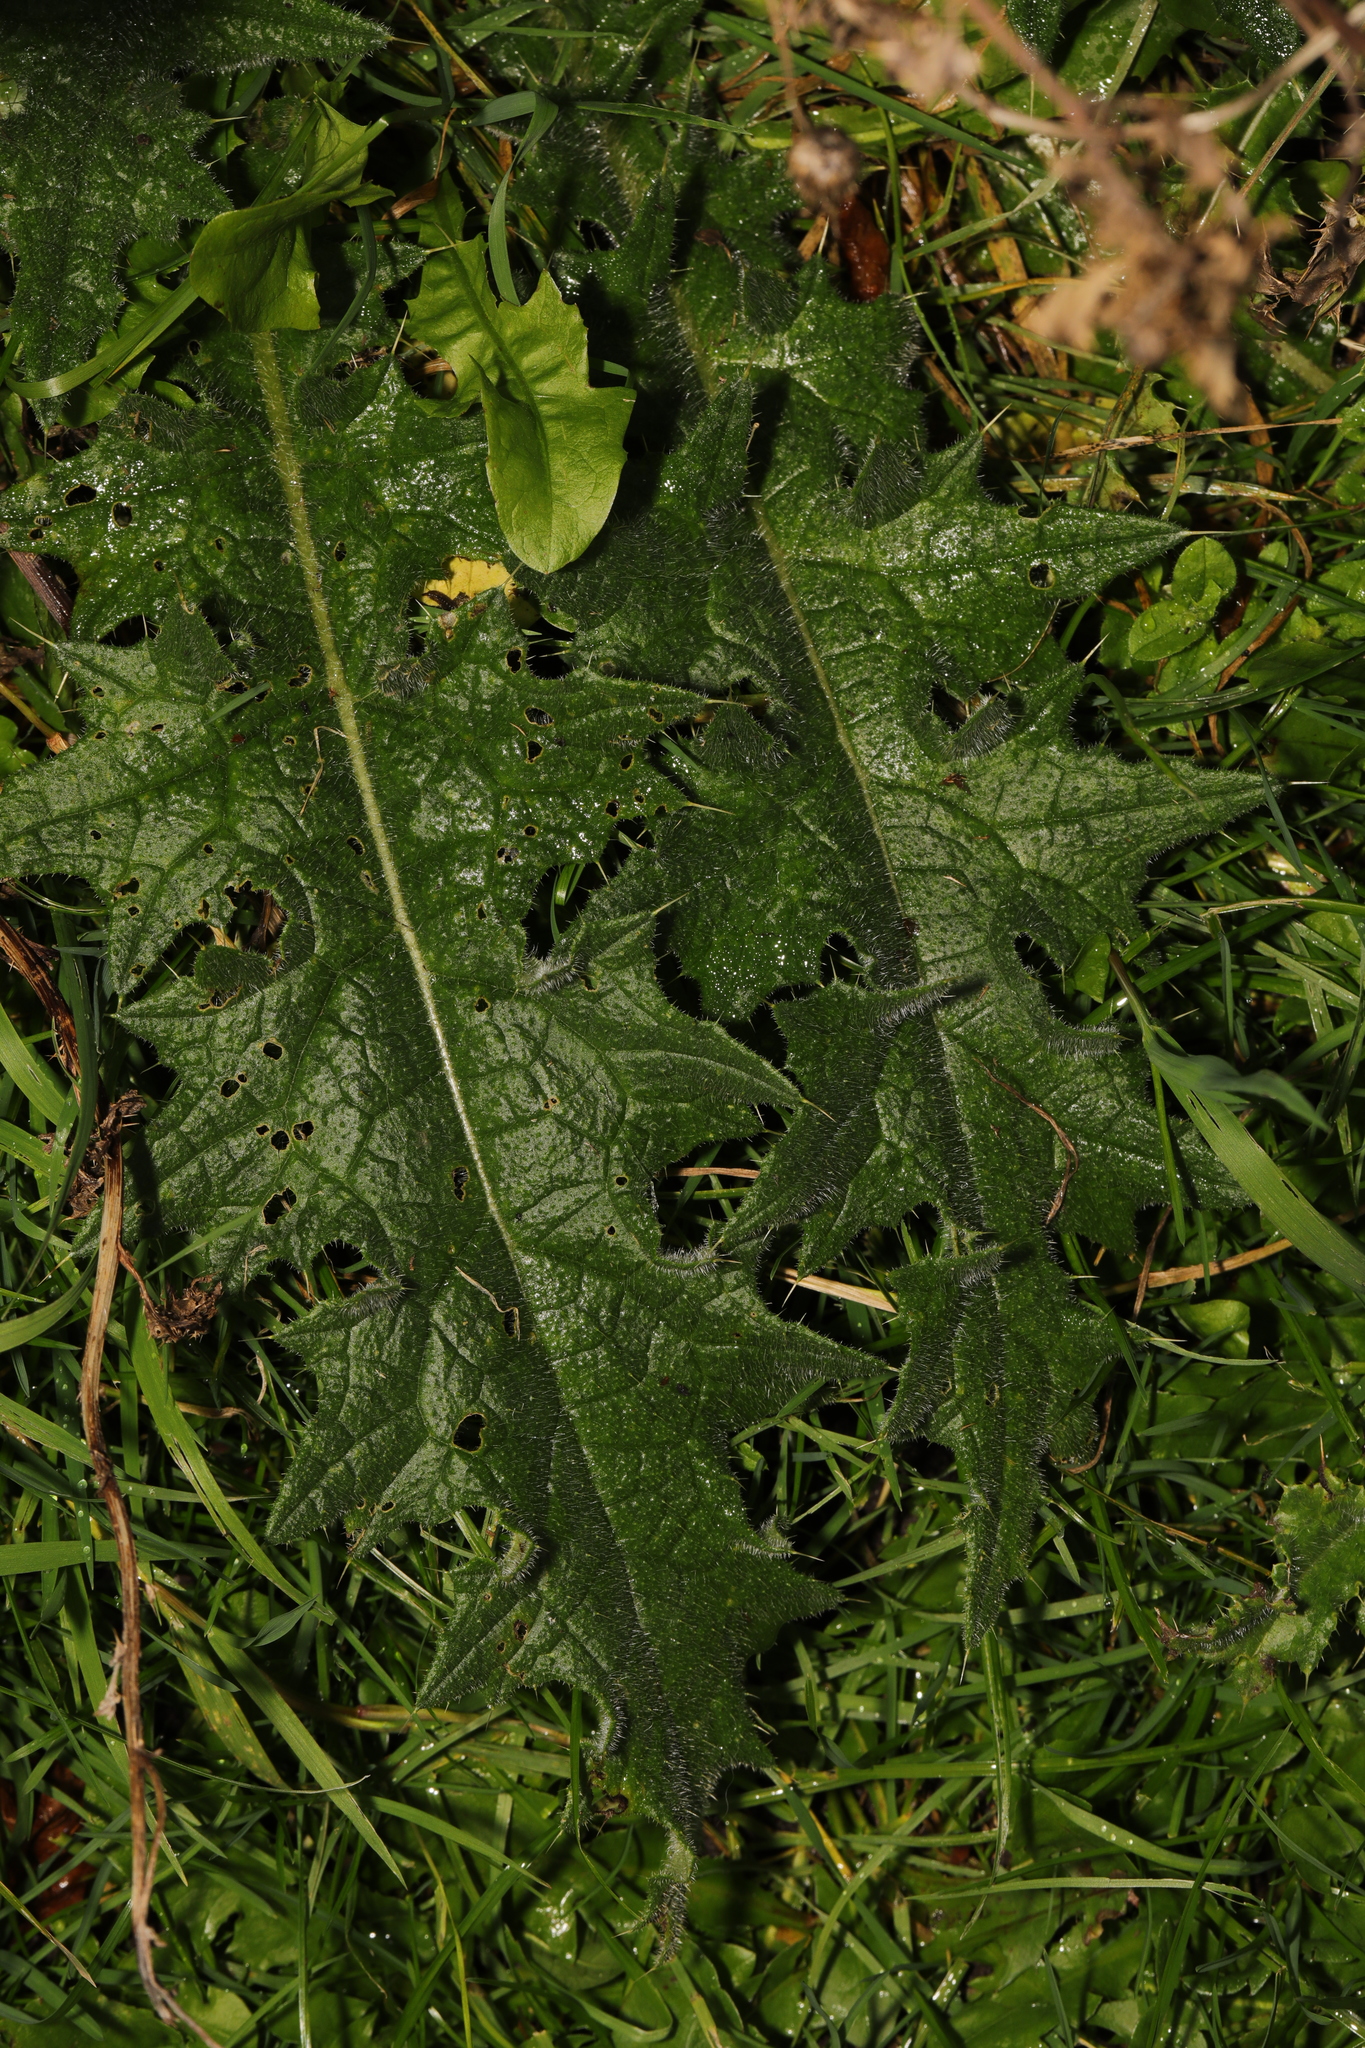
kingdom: Plantae
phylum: Tracheophyta
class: Magnoliopsida
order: Asterales
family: Asteraceae
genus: Cirsium
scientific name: Cirsium vulgare
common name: Bull thistle
